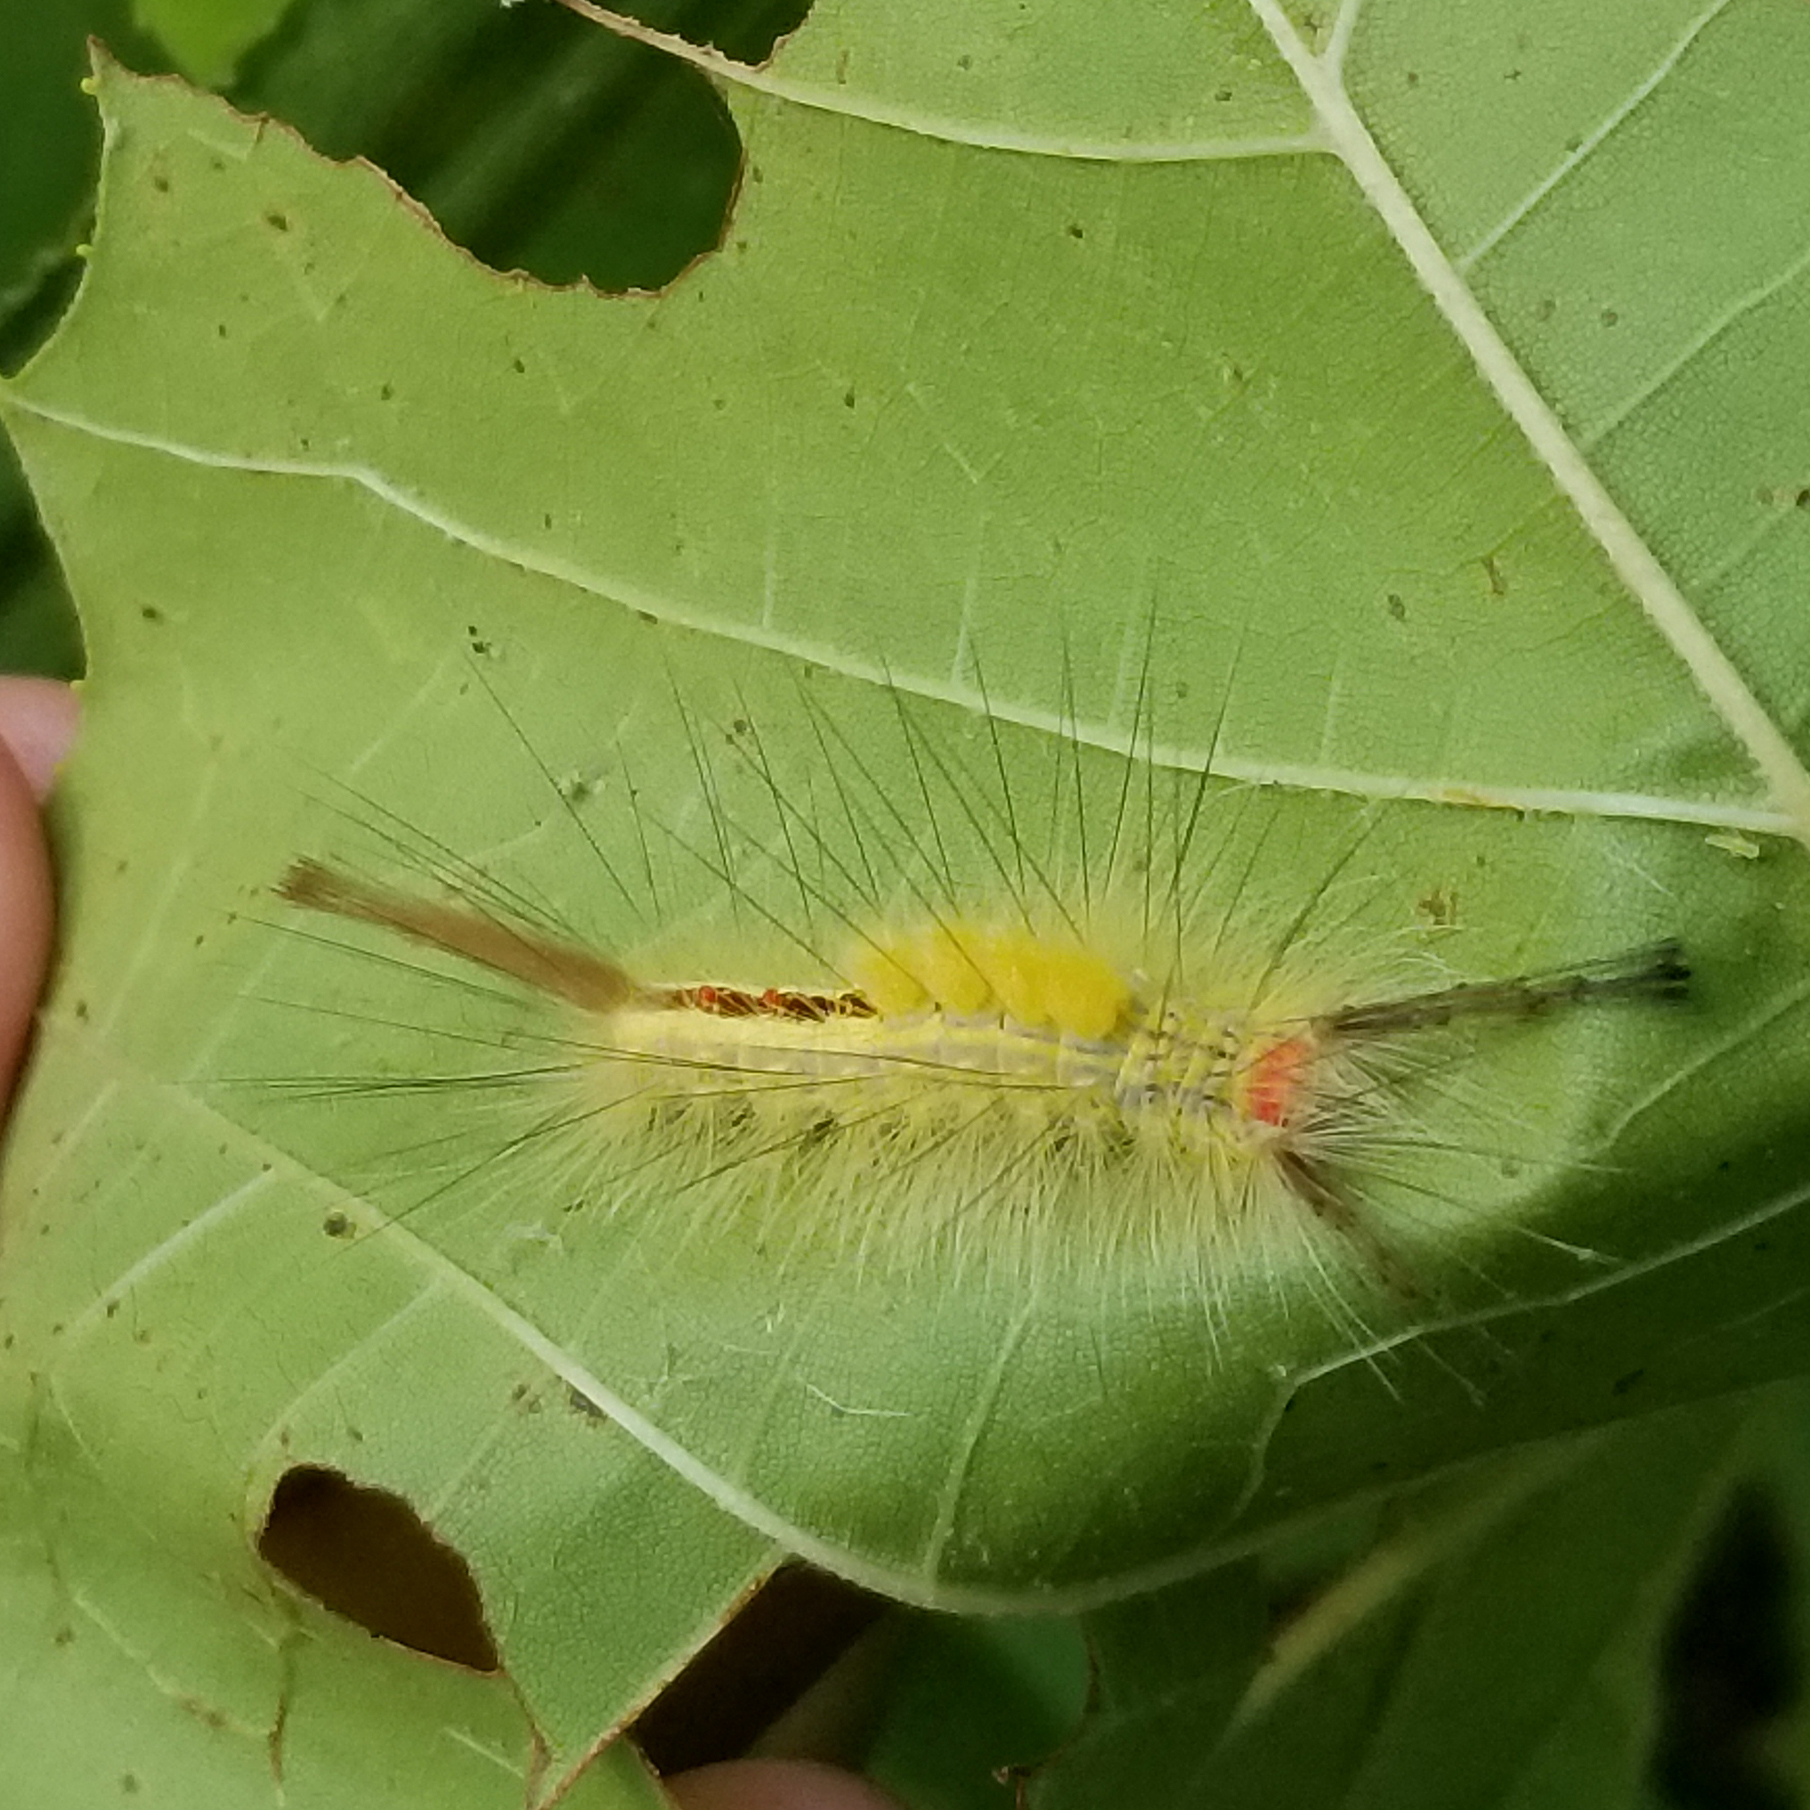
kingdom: Animalia
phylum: Arthropoda
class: Insecta
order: Lepidoptera
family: Erebidae
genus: Orgyia
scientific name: Orgyia leucostigma
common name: White-marked tussock moth
